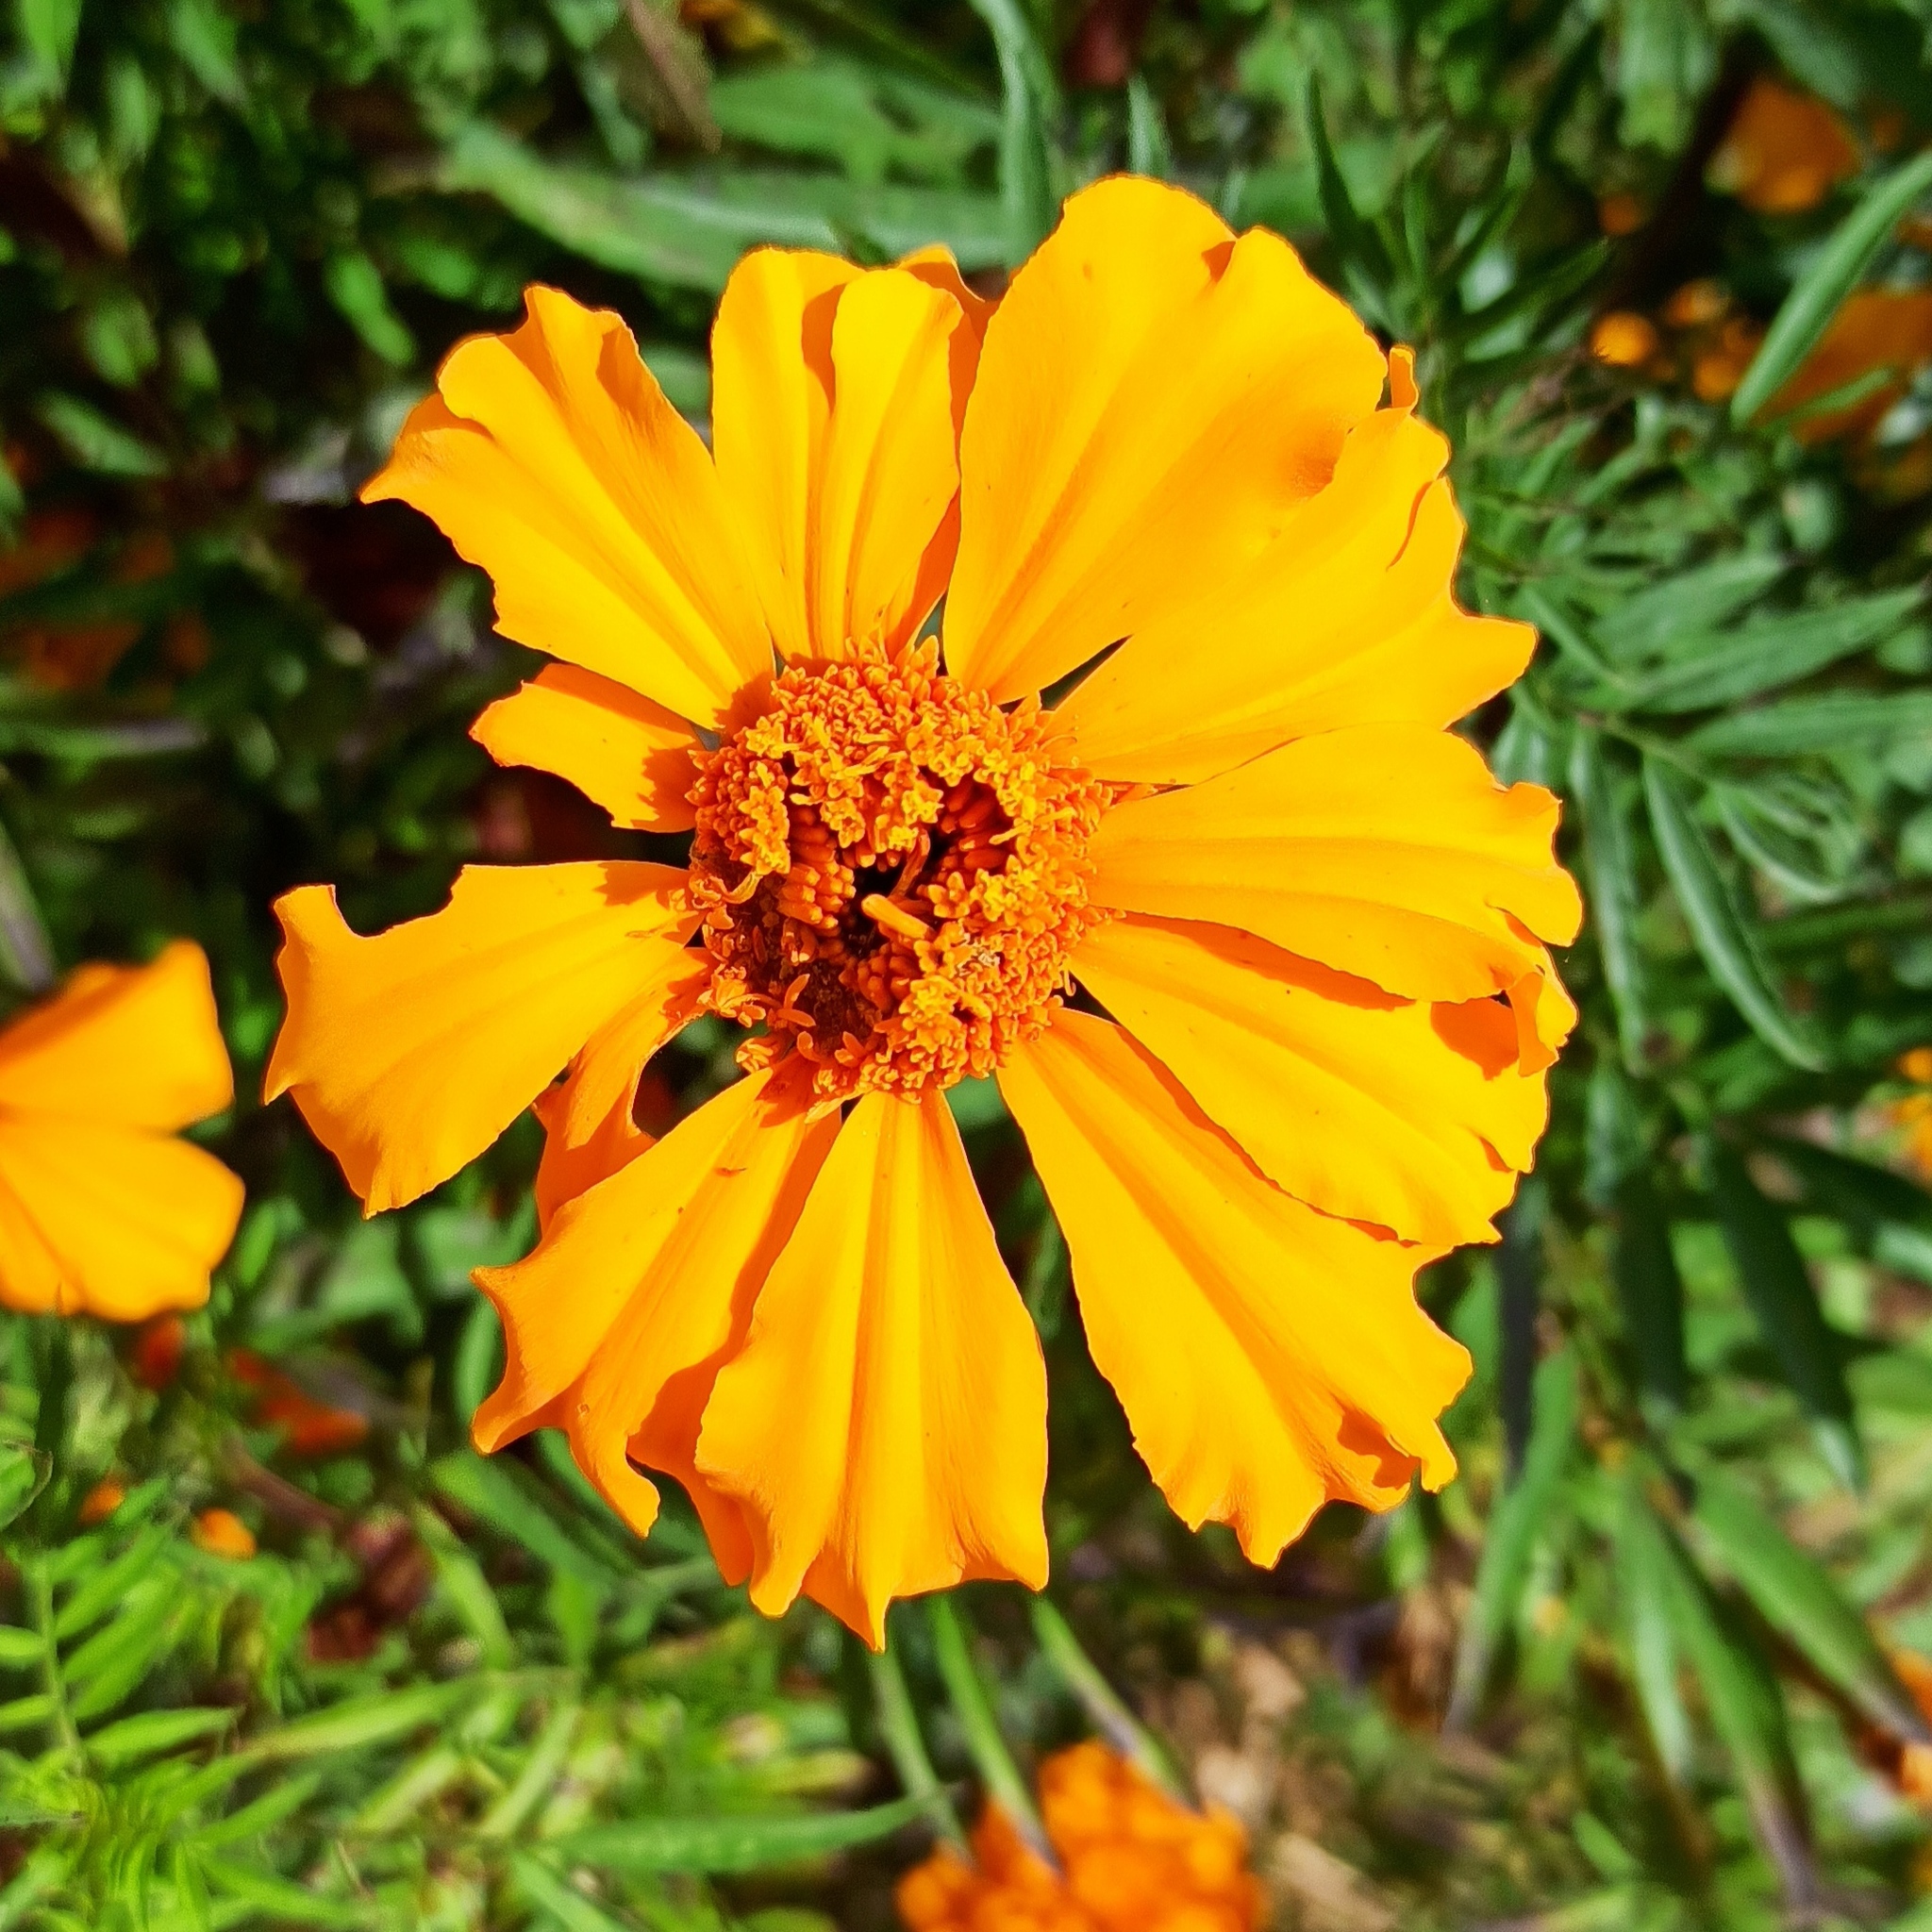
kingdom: Plantae
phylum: Tracheophyta
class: Magnoliopsida
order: Asterales
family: Asteraceae
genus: Tagetes
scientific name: Tagetes erecta
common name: African marigold
